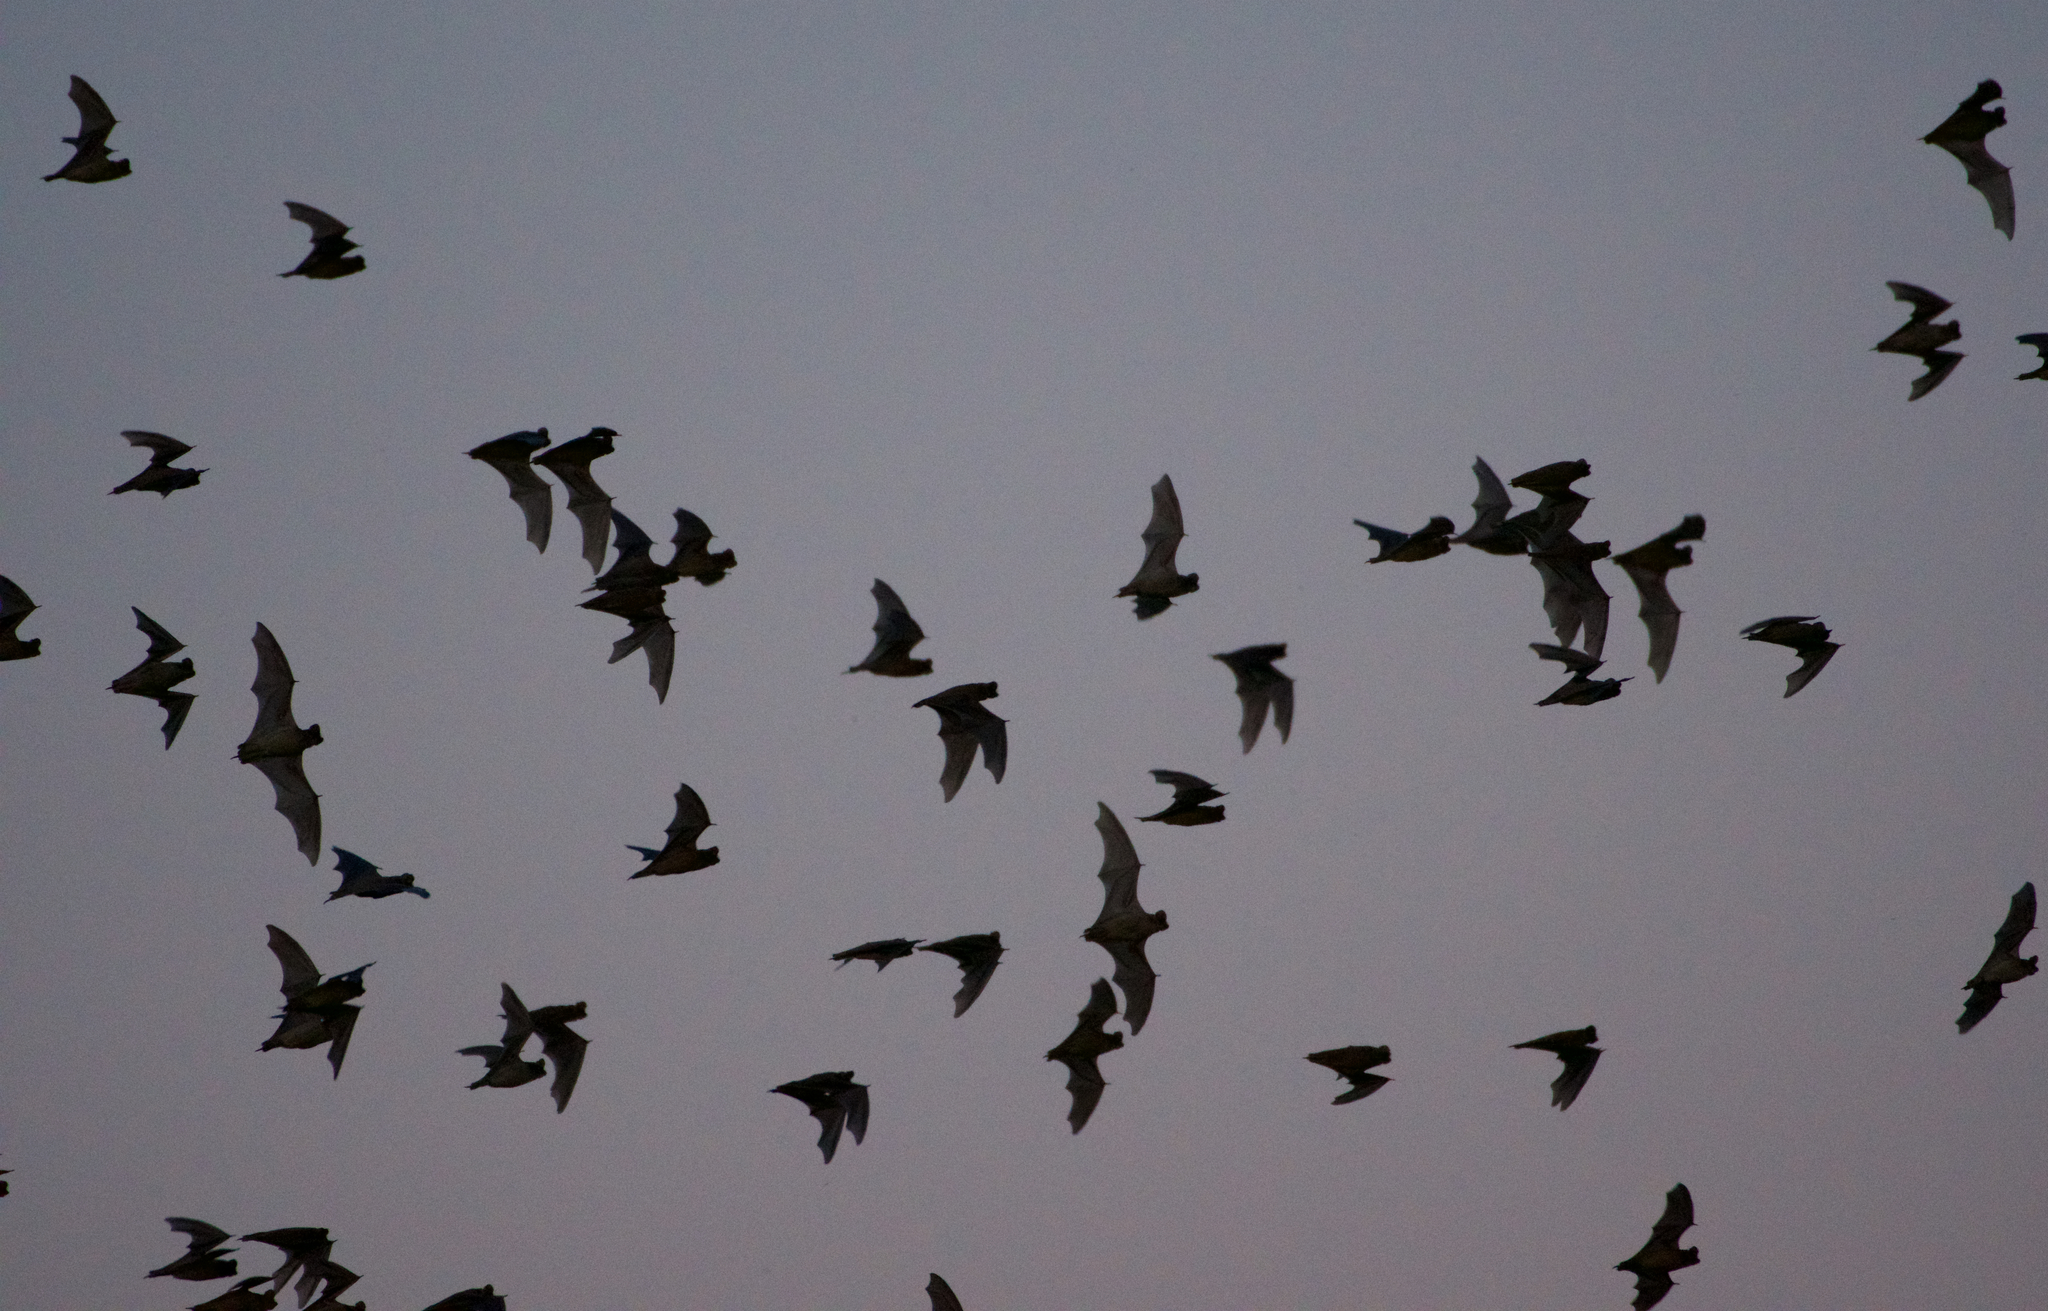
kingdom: Animalia
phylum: Chordata
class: Mammalia
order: Chiroptera
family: Molossidae
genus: Tadarida
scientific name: Tadarida brasiliensis
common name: Mexican free-tailed bat
